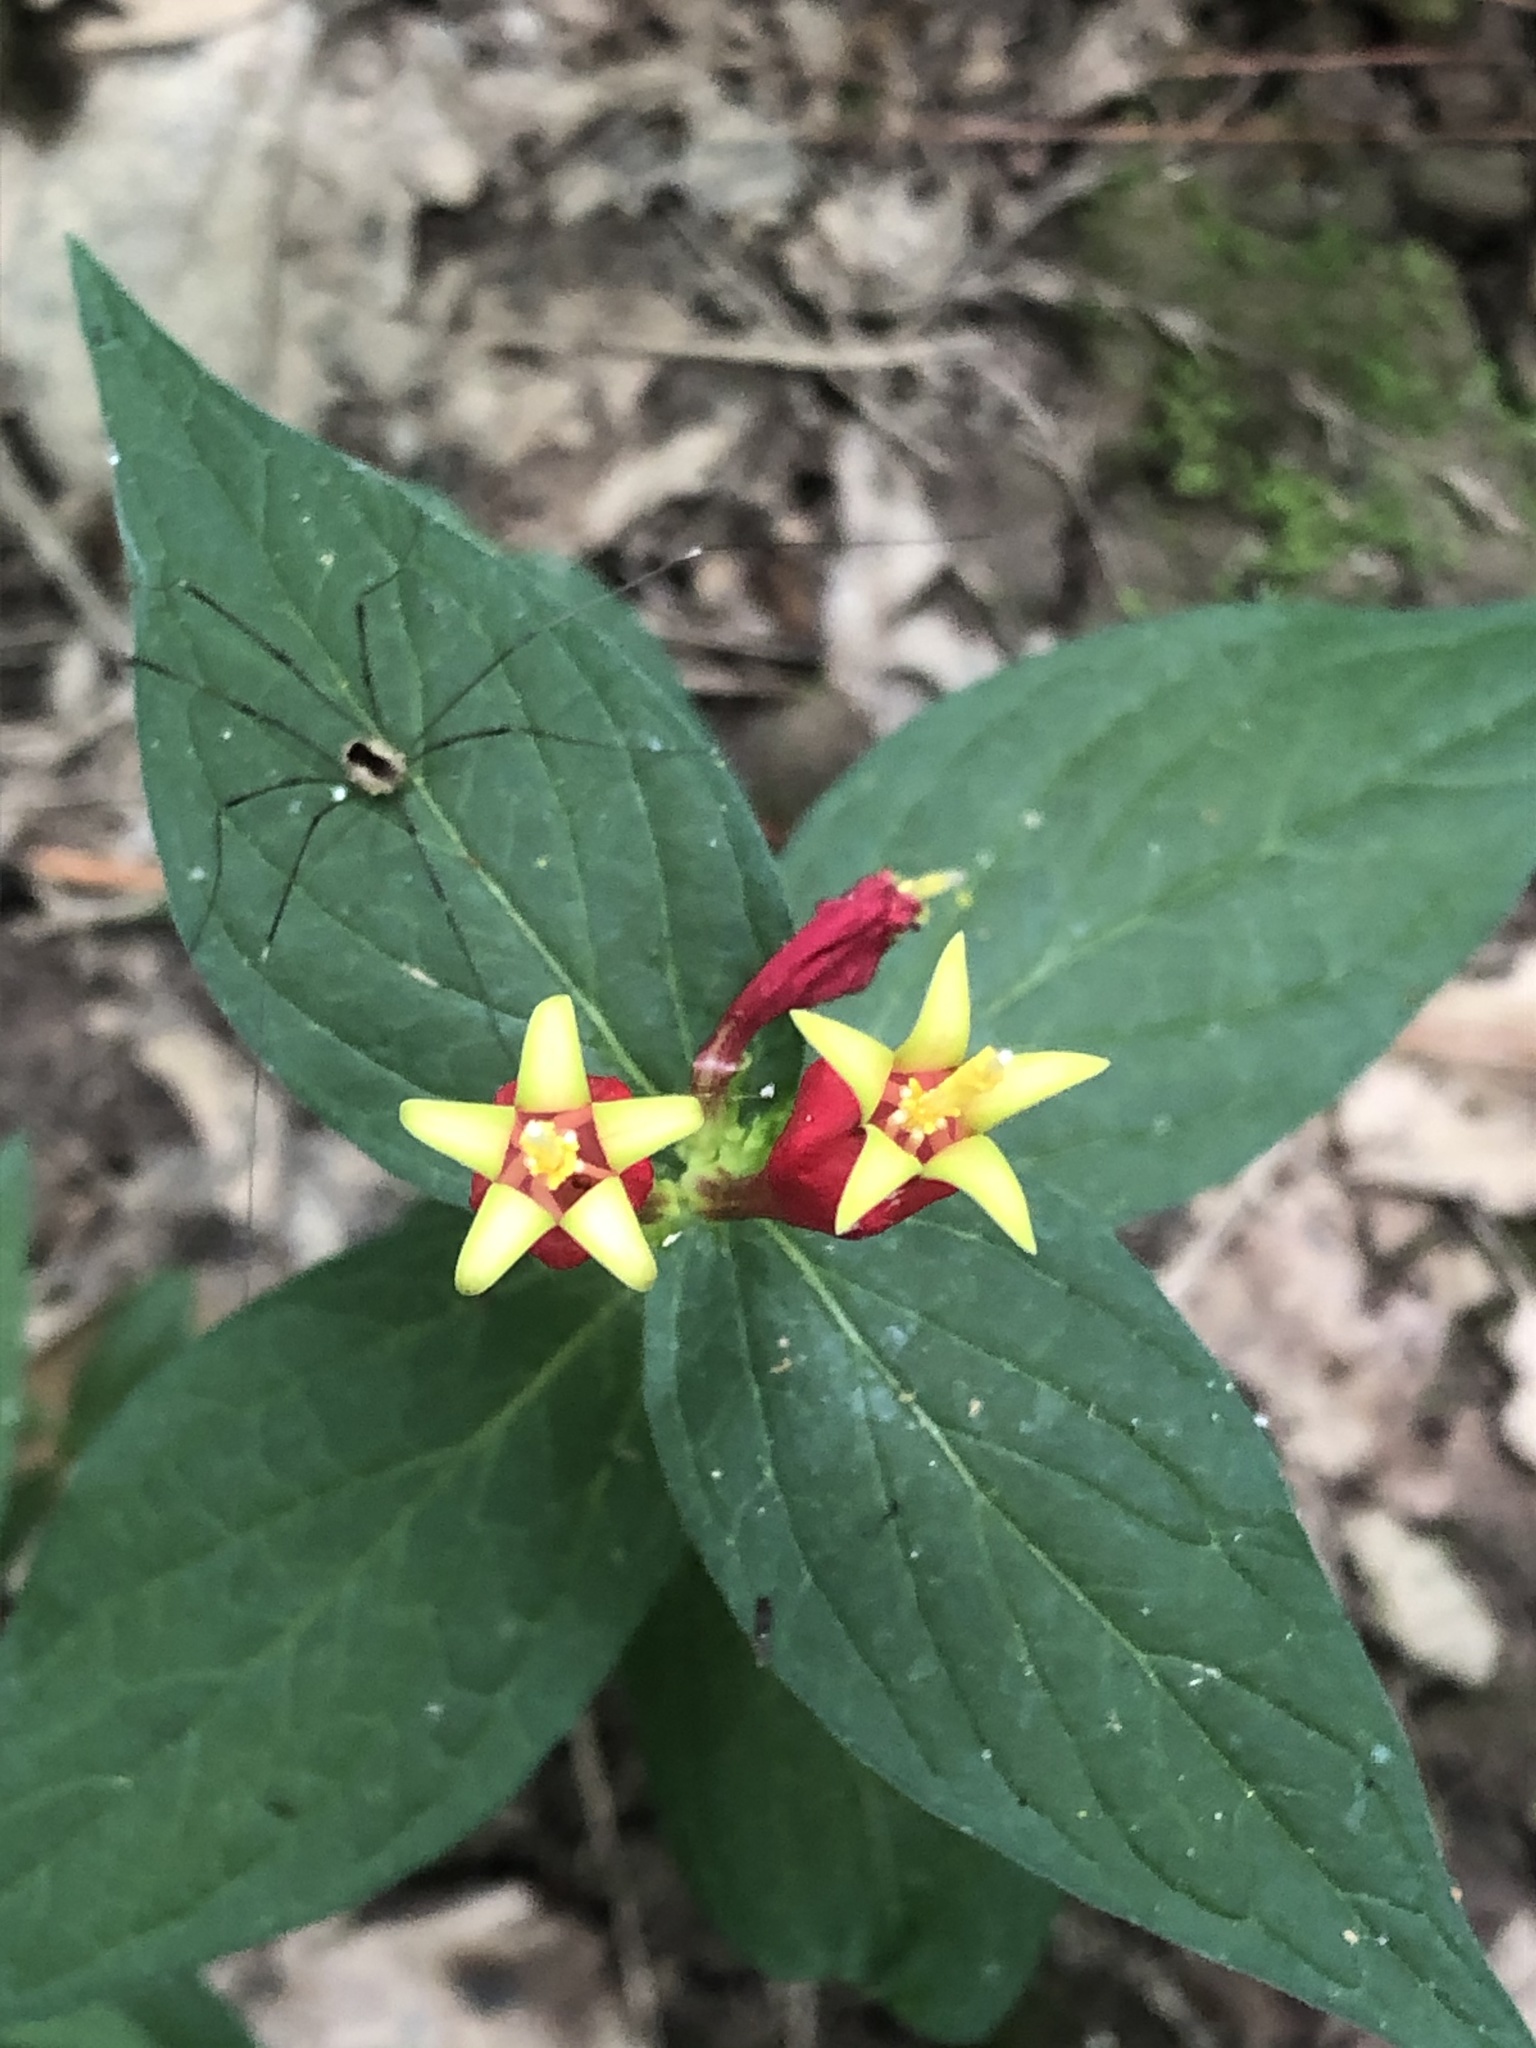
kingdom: Plantae
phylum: Tracheophyta
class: Magnoliopsida
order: Gentianales
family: Loganiaceae
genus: Spigelia
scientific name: Spigelia marilandica
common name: Indian-pink
